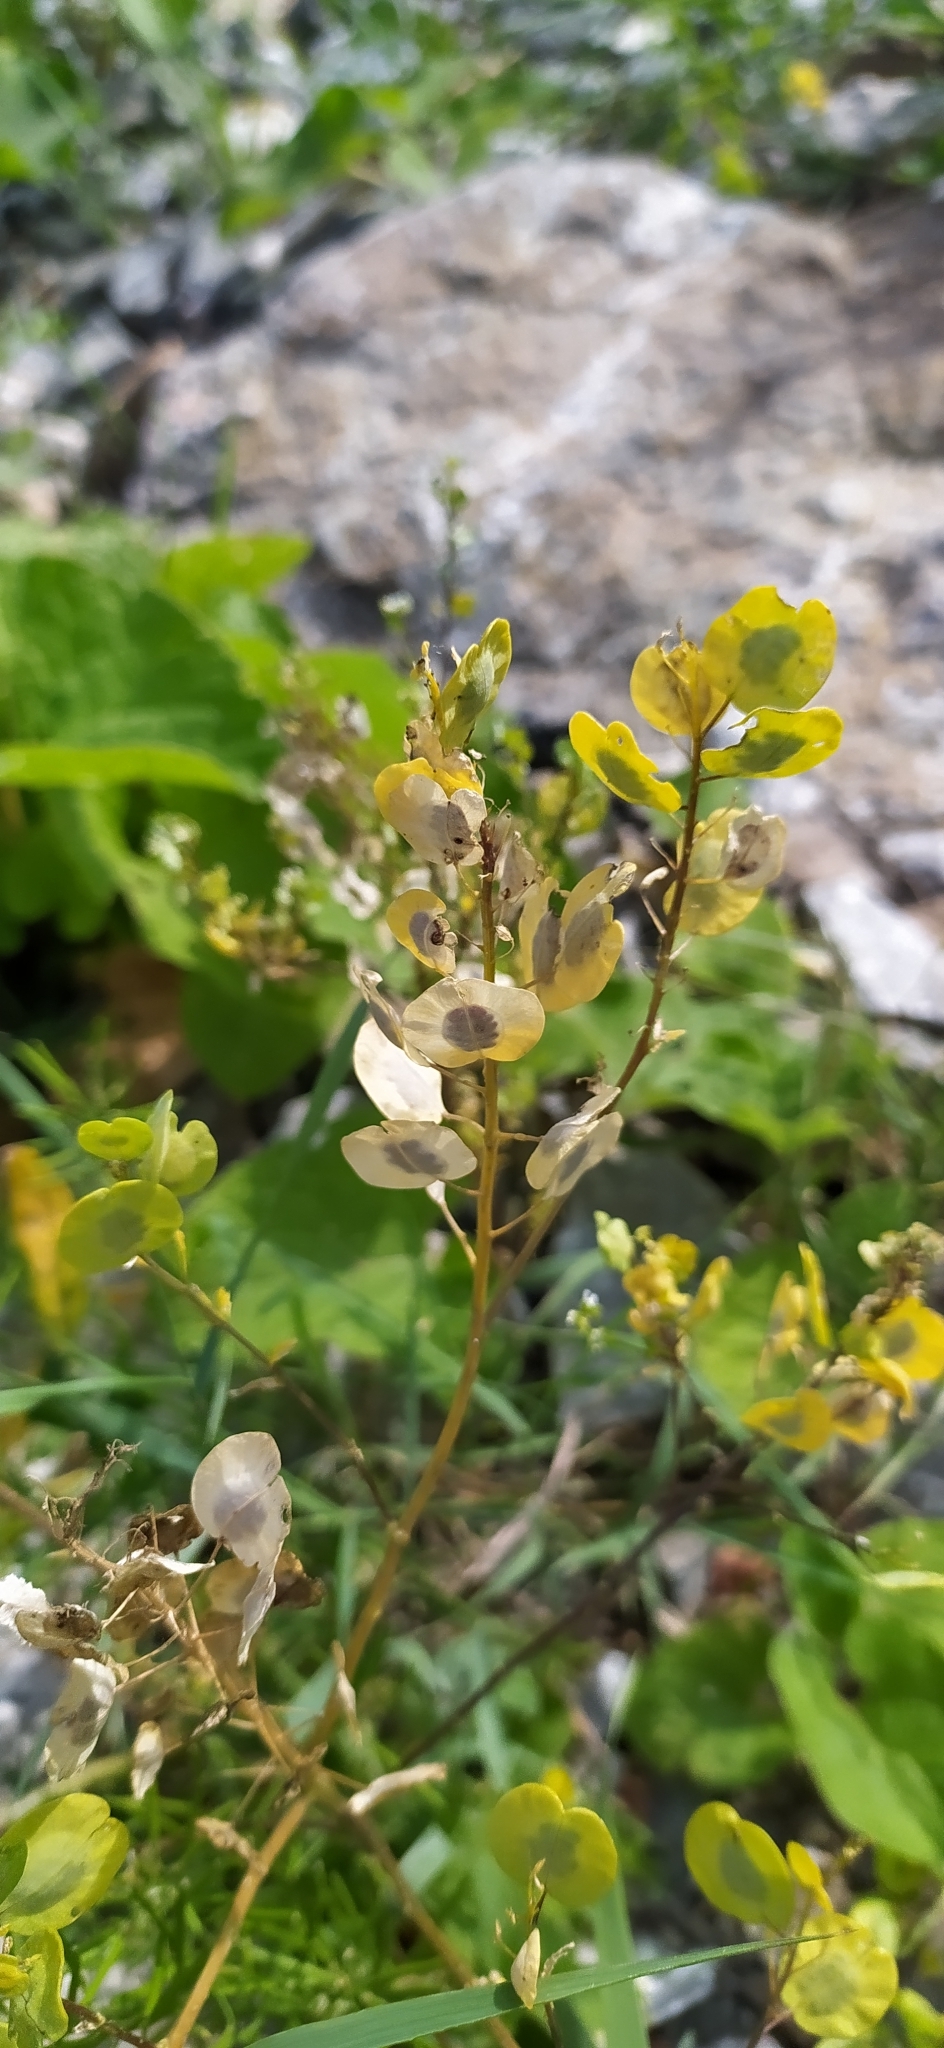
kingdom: Plantae
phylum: Tracheophyta
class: Magnoliopsida
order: Brassicales
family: Brassicaceae
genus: Thlaspi
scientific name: Thlaspi arvense
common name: Field pennycress
